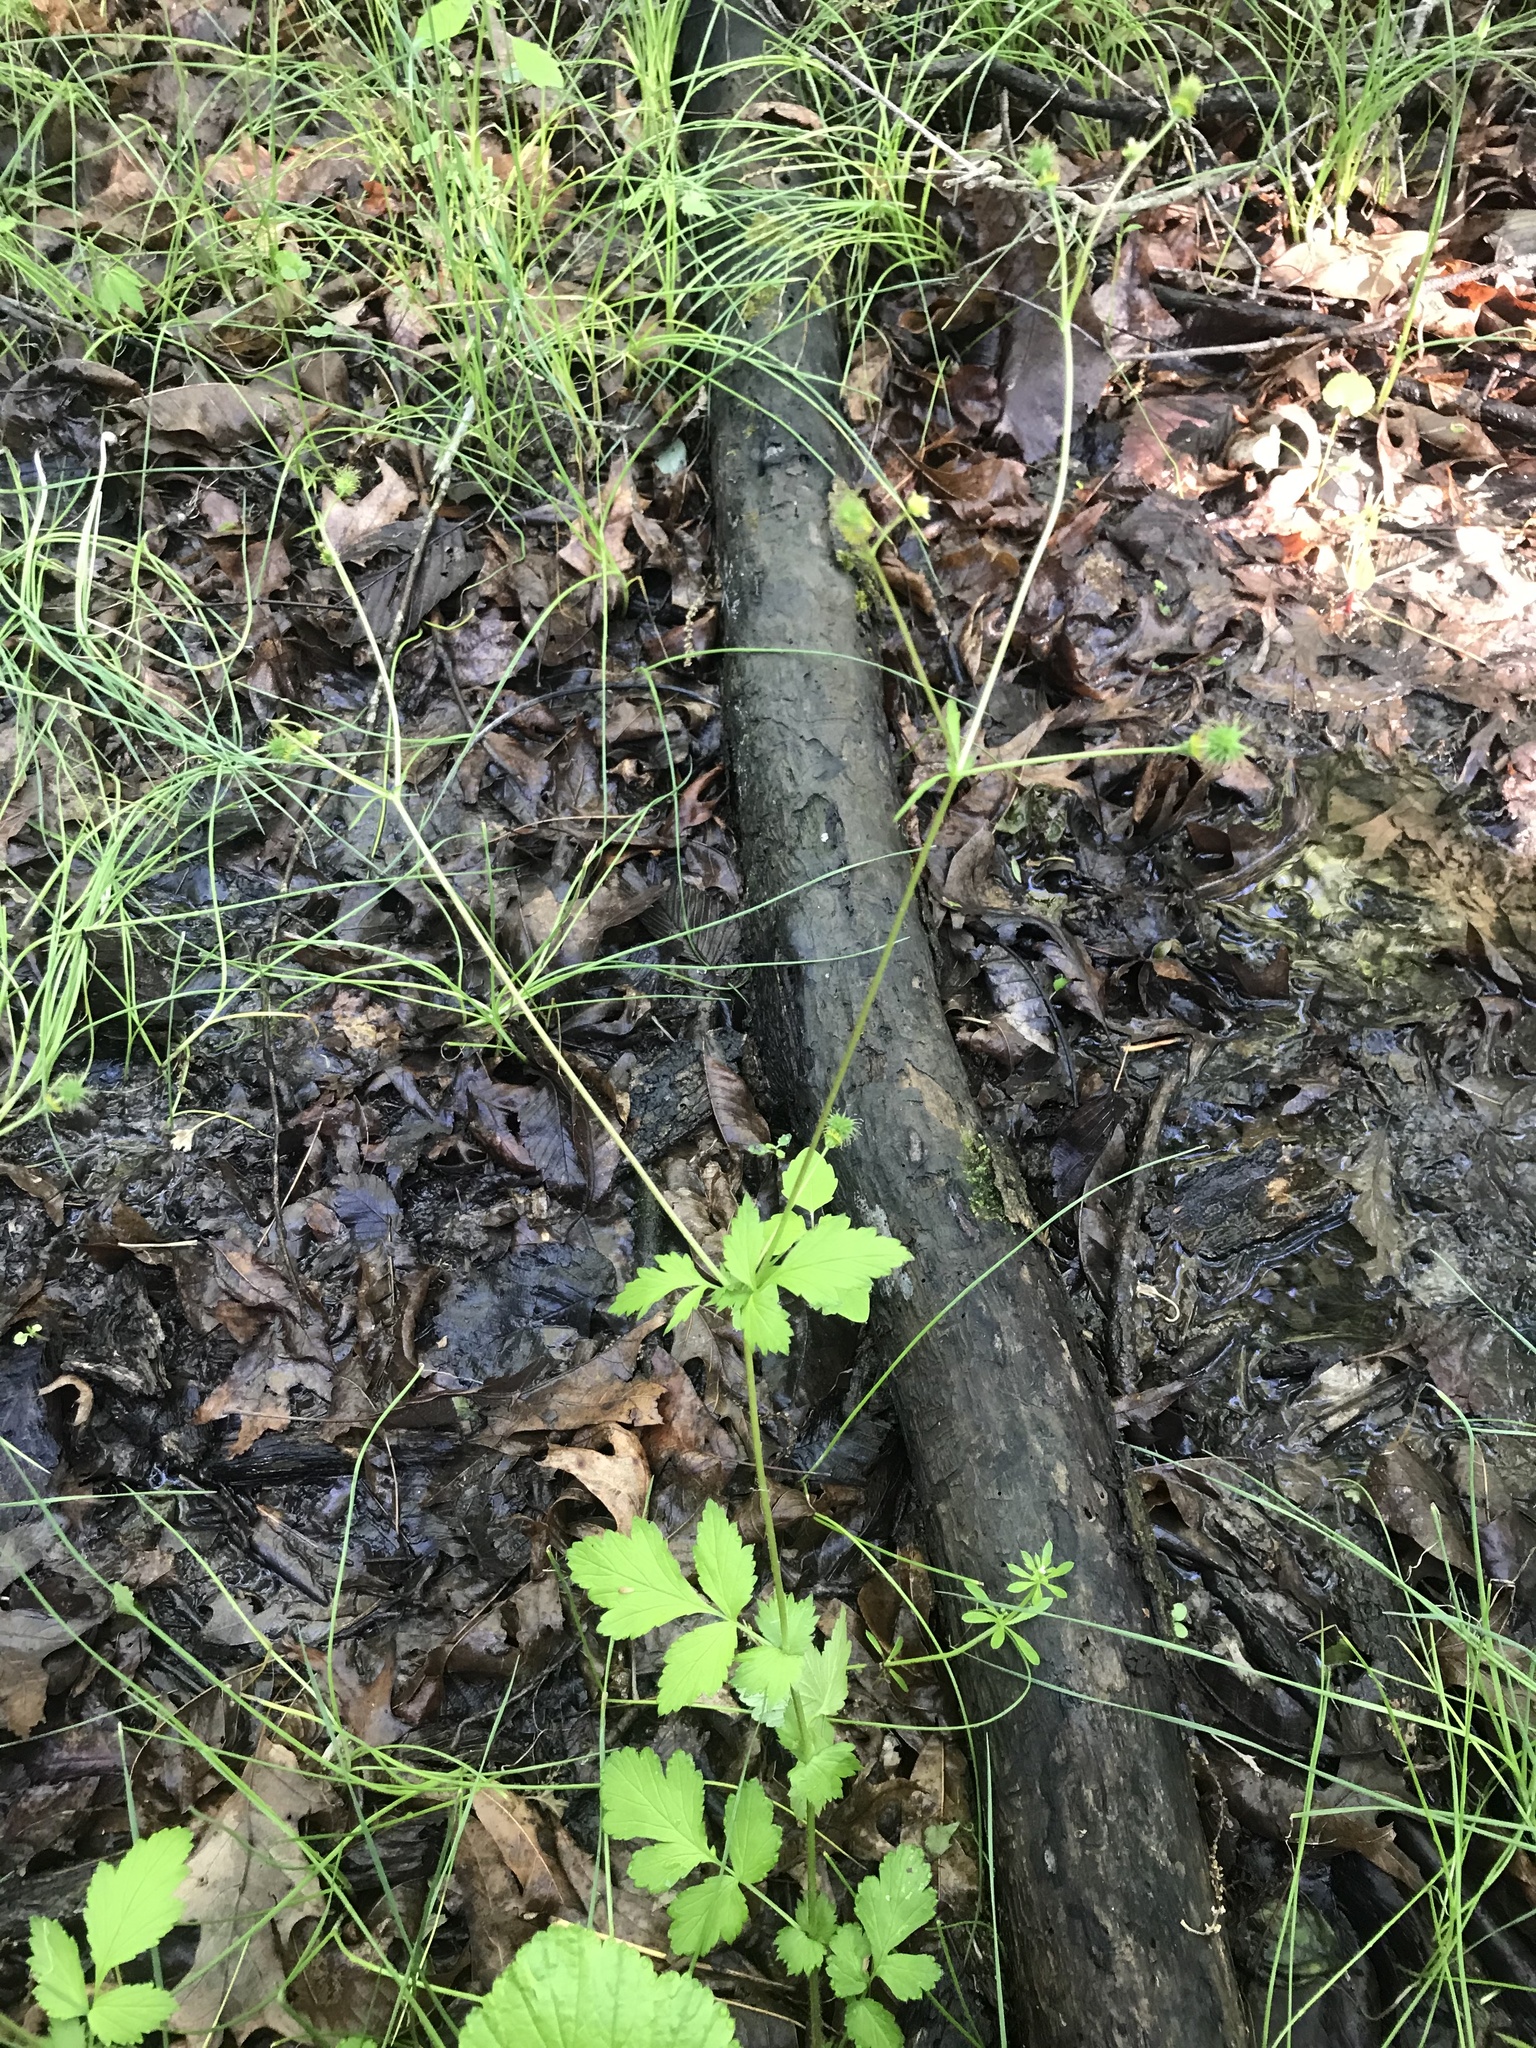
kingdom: Plantae
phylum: Tracheophyta
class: Magnoliopsida
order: Rosales
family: Rosaceae
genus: Geum
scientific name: Geum vernum
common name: Spring avens
